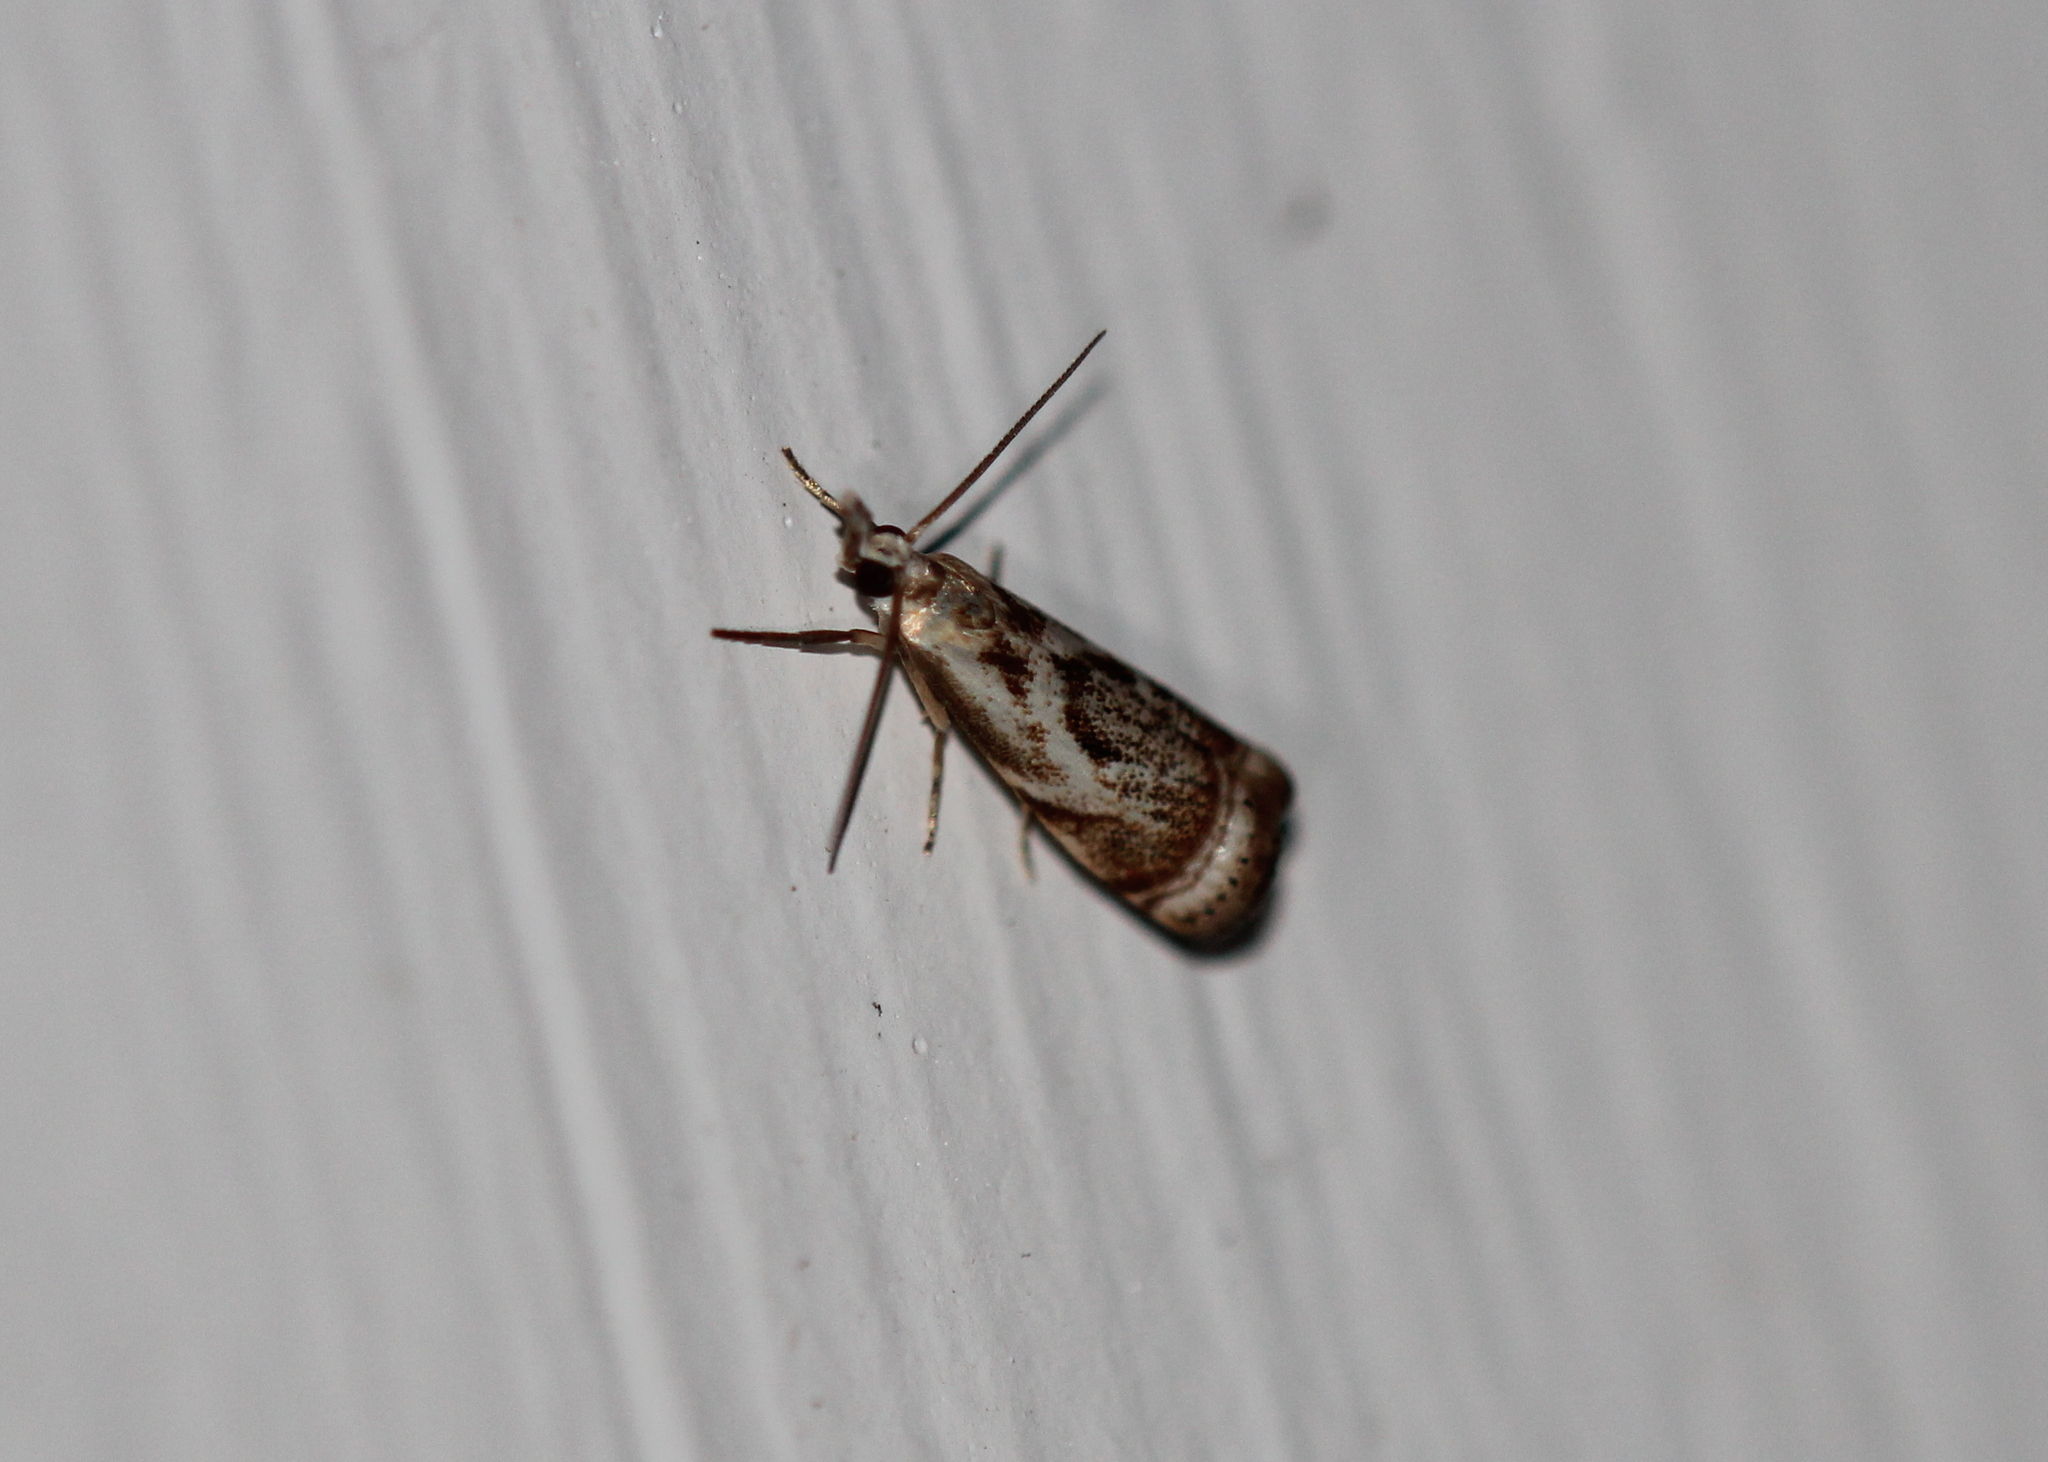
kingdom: Animalia
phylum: Arthropoda
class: Insecta
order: Lepidoptera
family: Crambidae
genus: Microcrambus
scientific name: Microcrambus elegans
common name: Elegant grass-veneer
